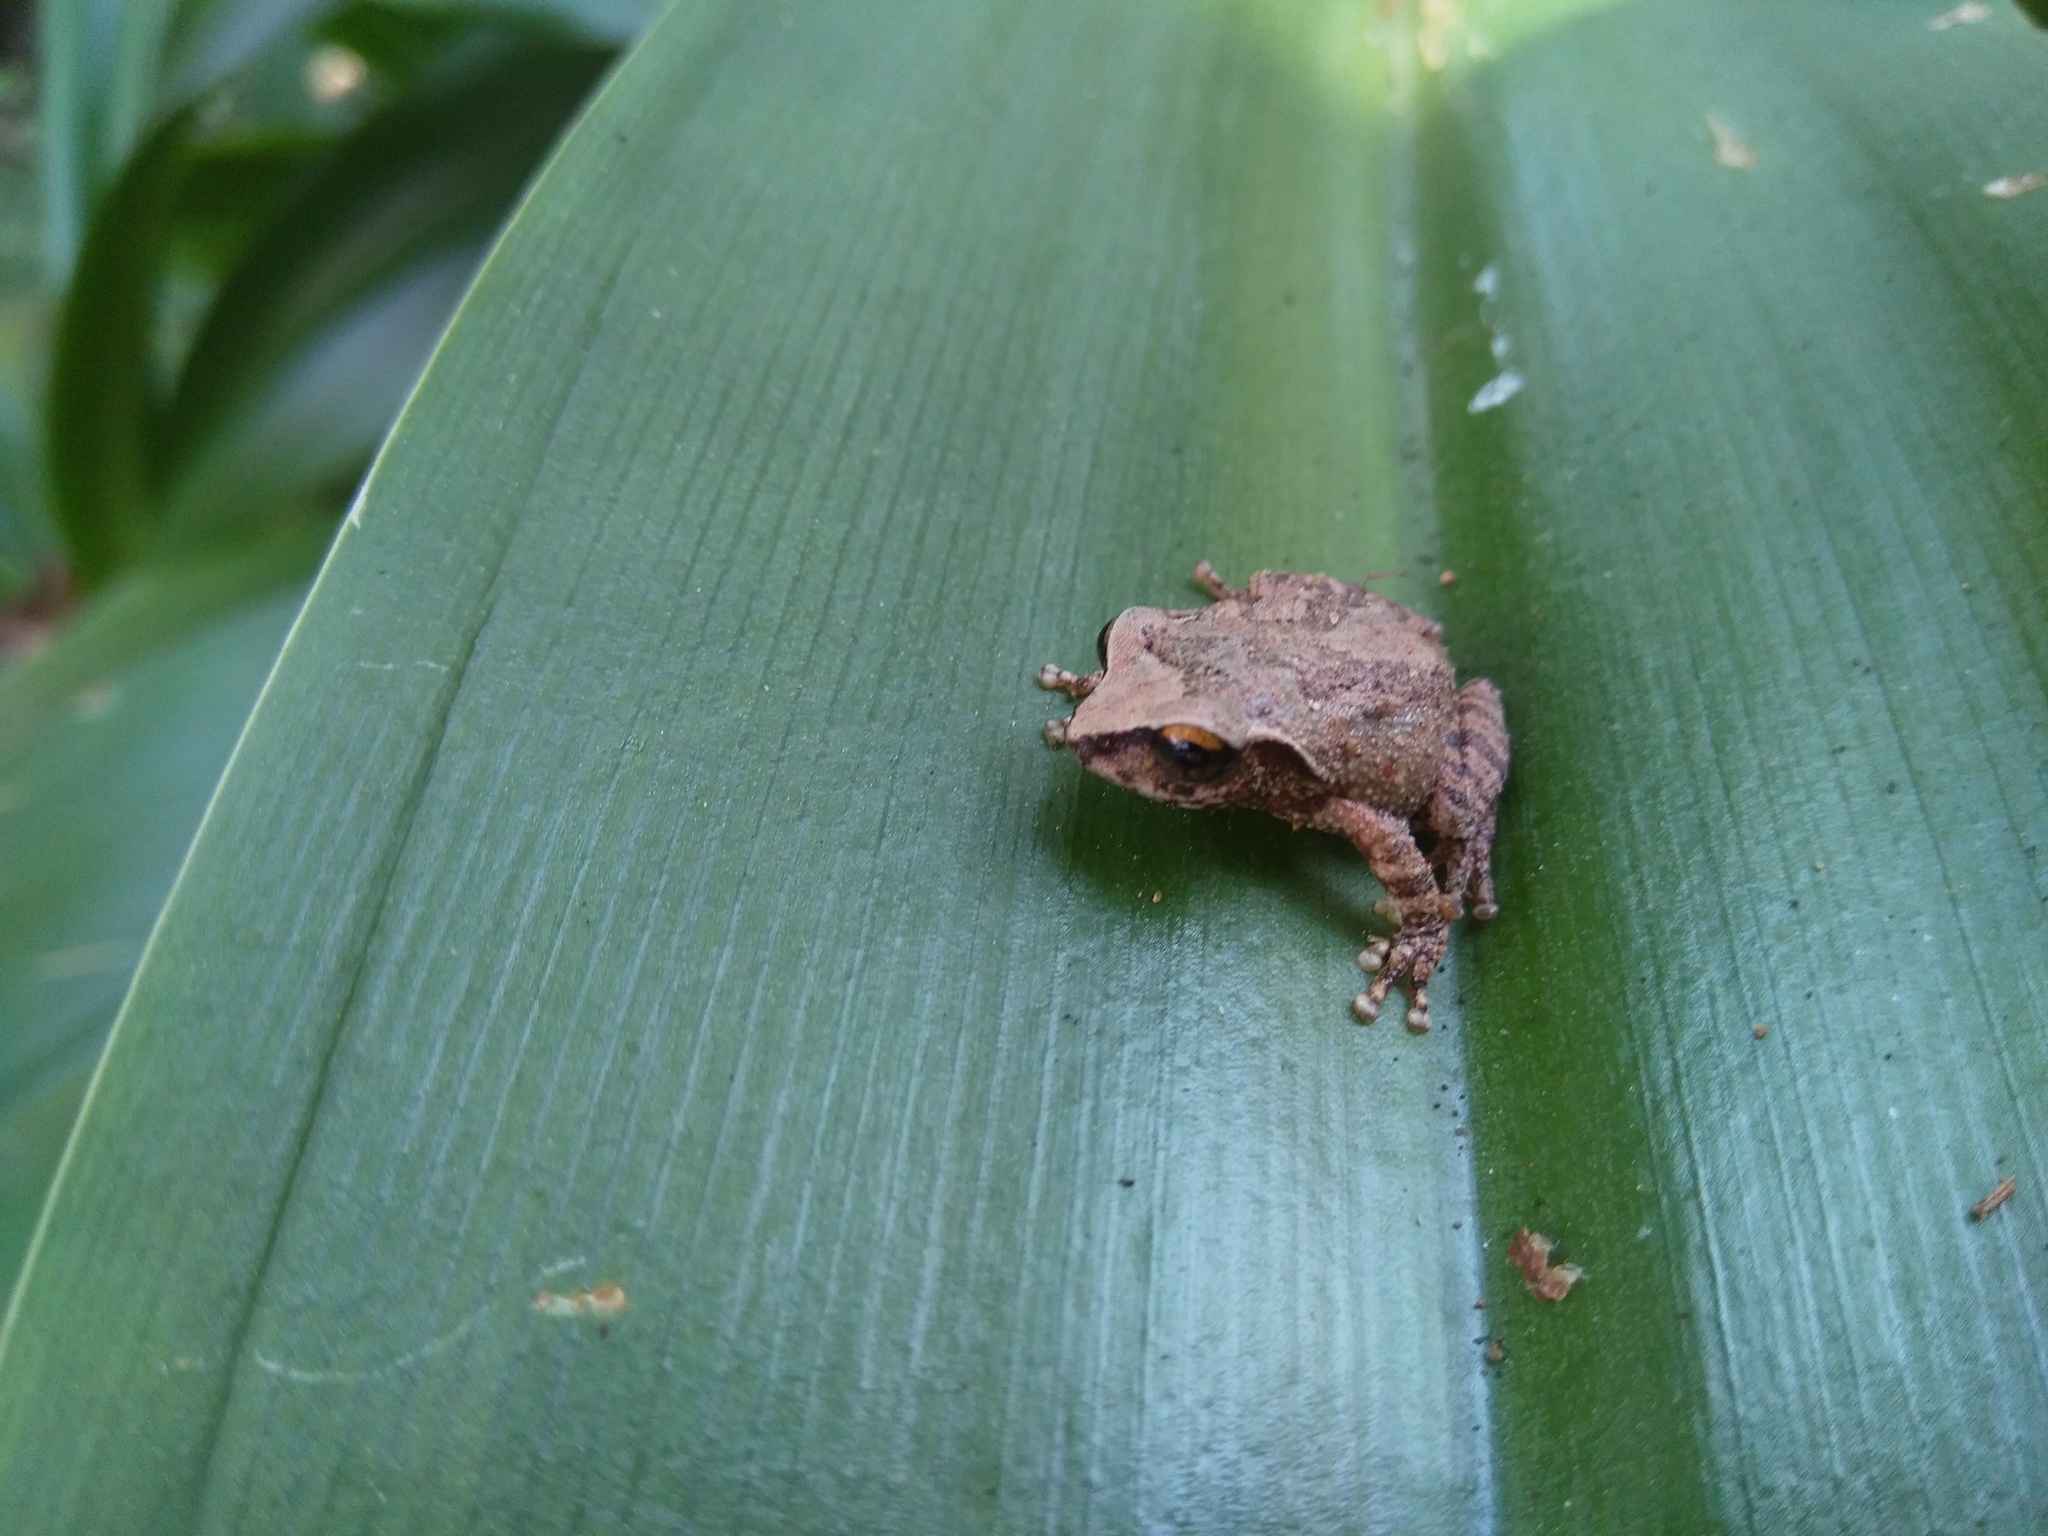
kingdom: Animalia
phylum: Chordata
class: Amphibia
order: Anura
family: Rhacophoridae
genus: Raorchestes
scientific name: Raorchestes dubois
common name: Koadaikanal bush frog
